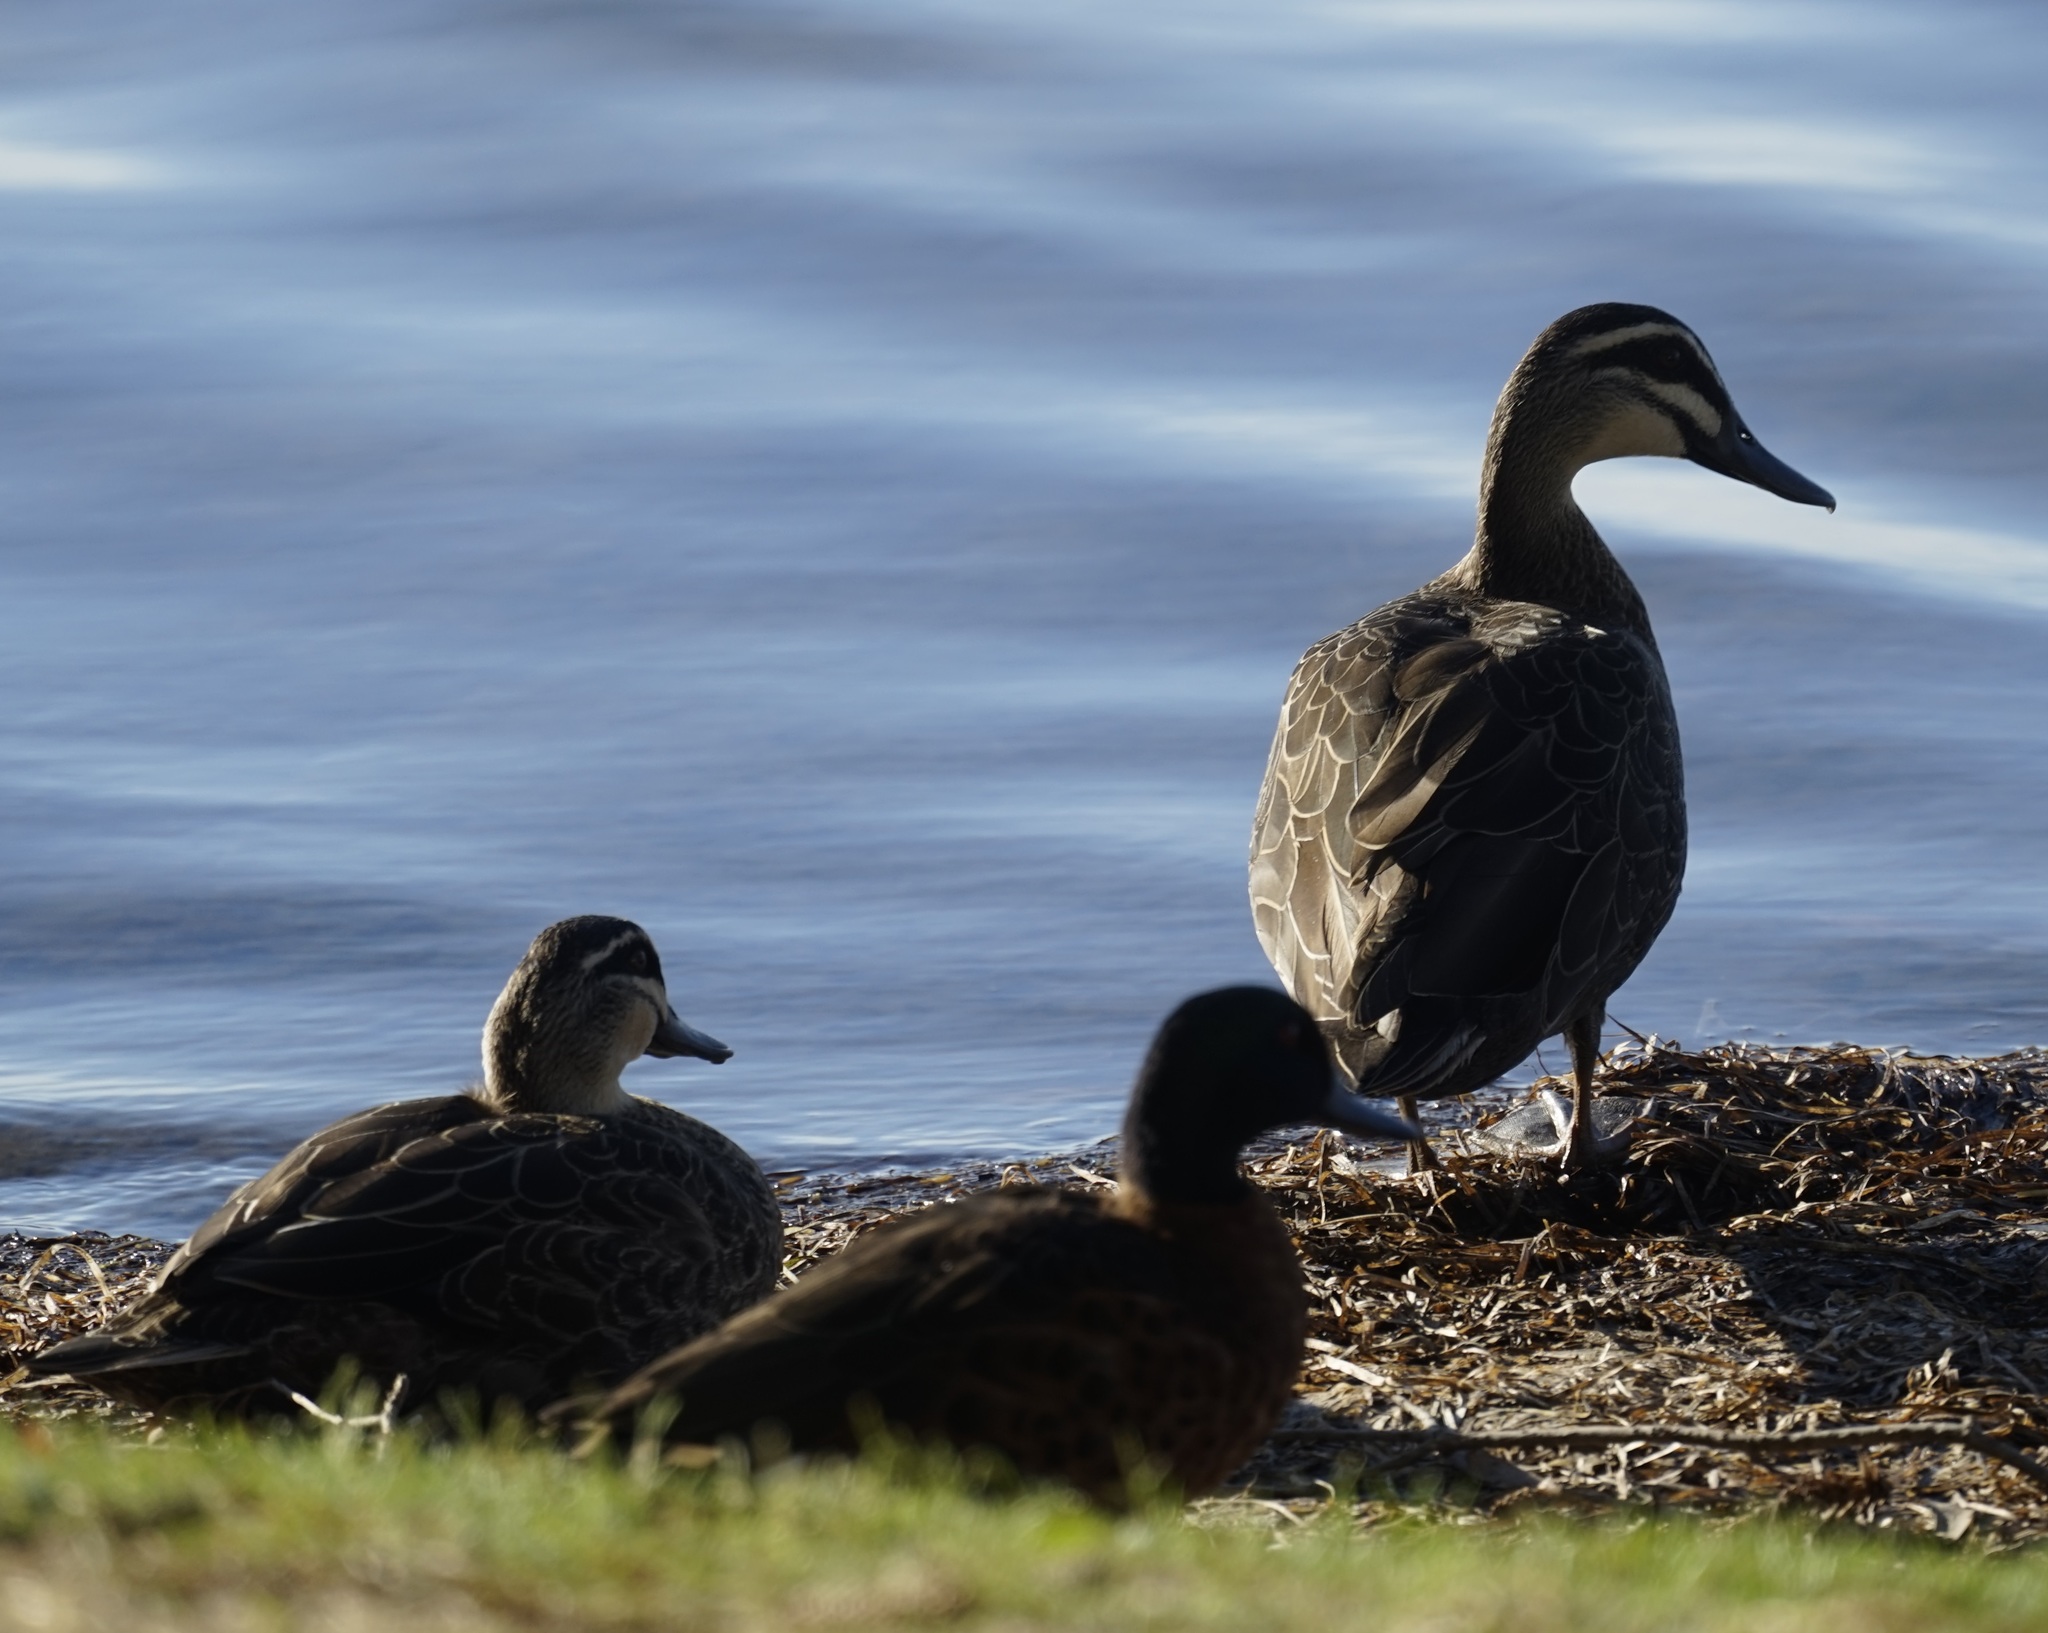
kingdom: Animalia
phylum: Chordata
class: Aves
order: Anseriformes
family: Anatidae
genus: Anas
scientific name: Anas superciliosa
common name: Pacific black duck
